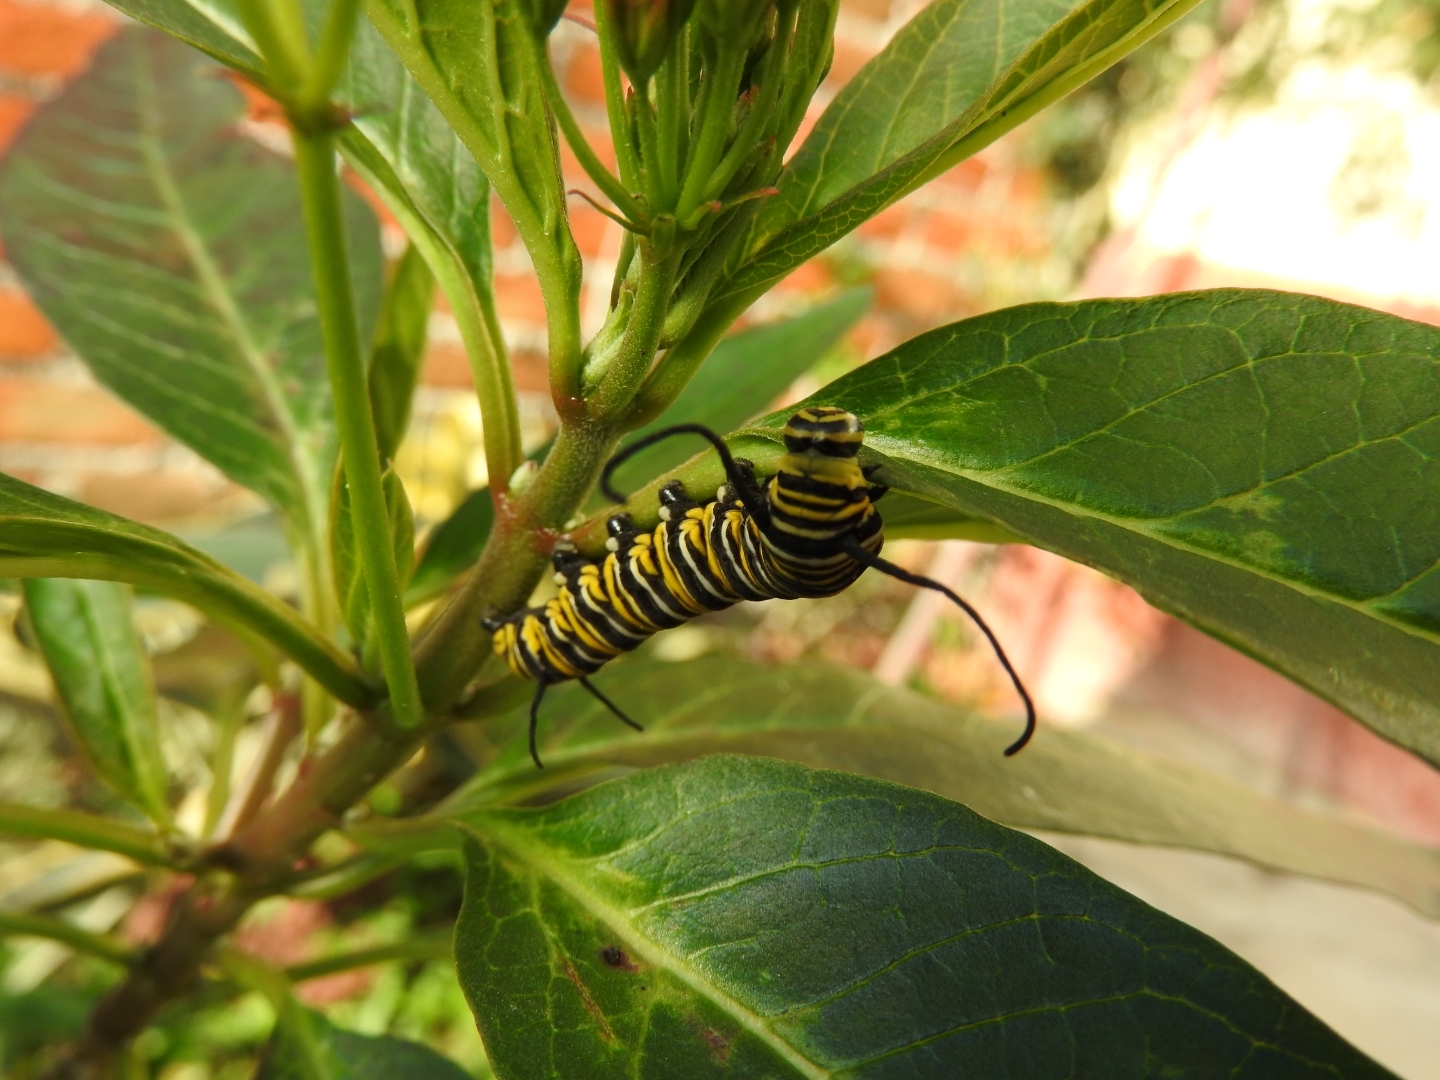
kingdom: Animalia
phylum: Arthropoda
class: Insecta
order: Lepidoptera
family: Nymphalidae
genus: Danaus
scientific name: Danaus plexippus
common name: Monarch
